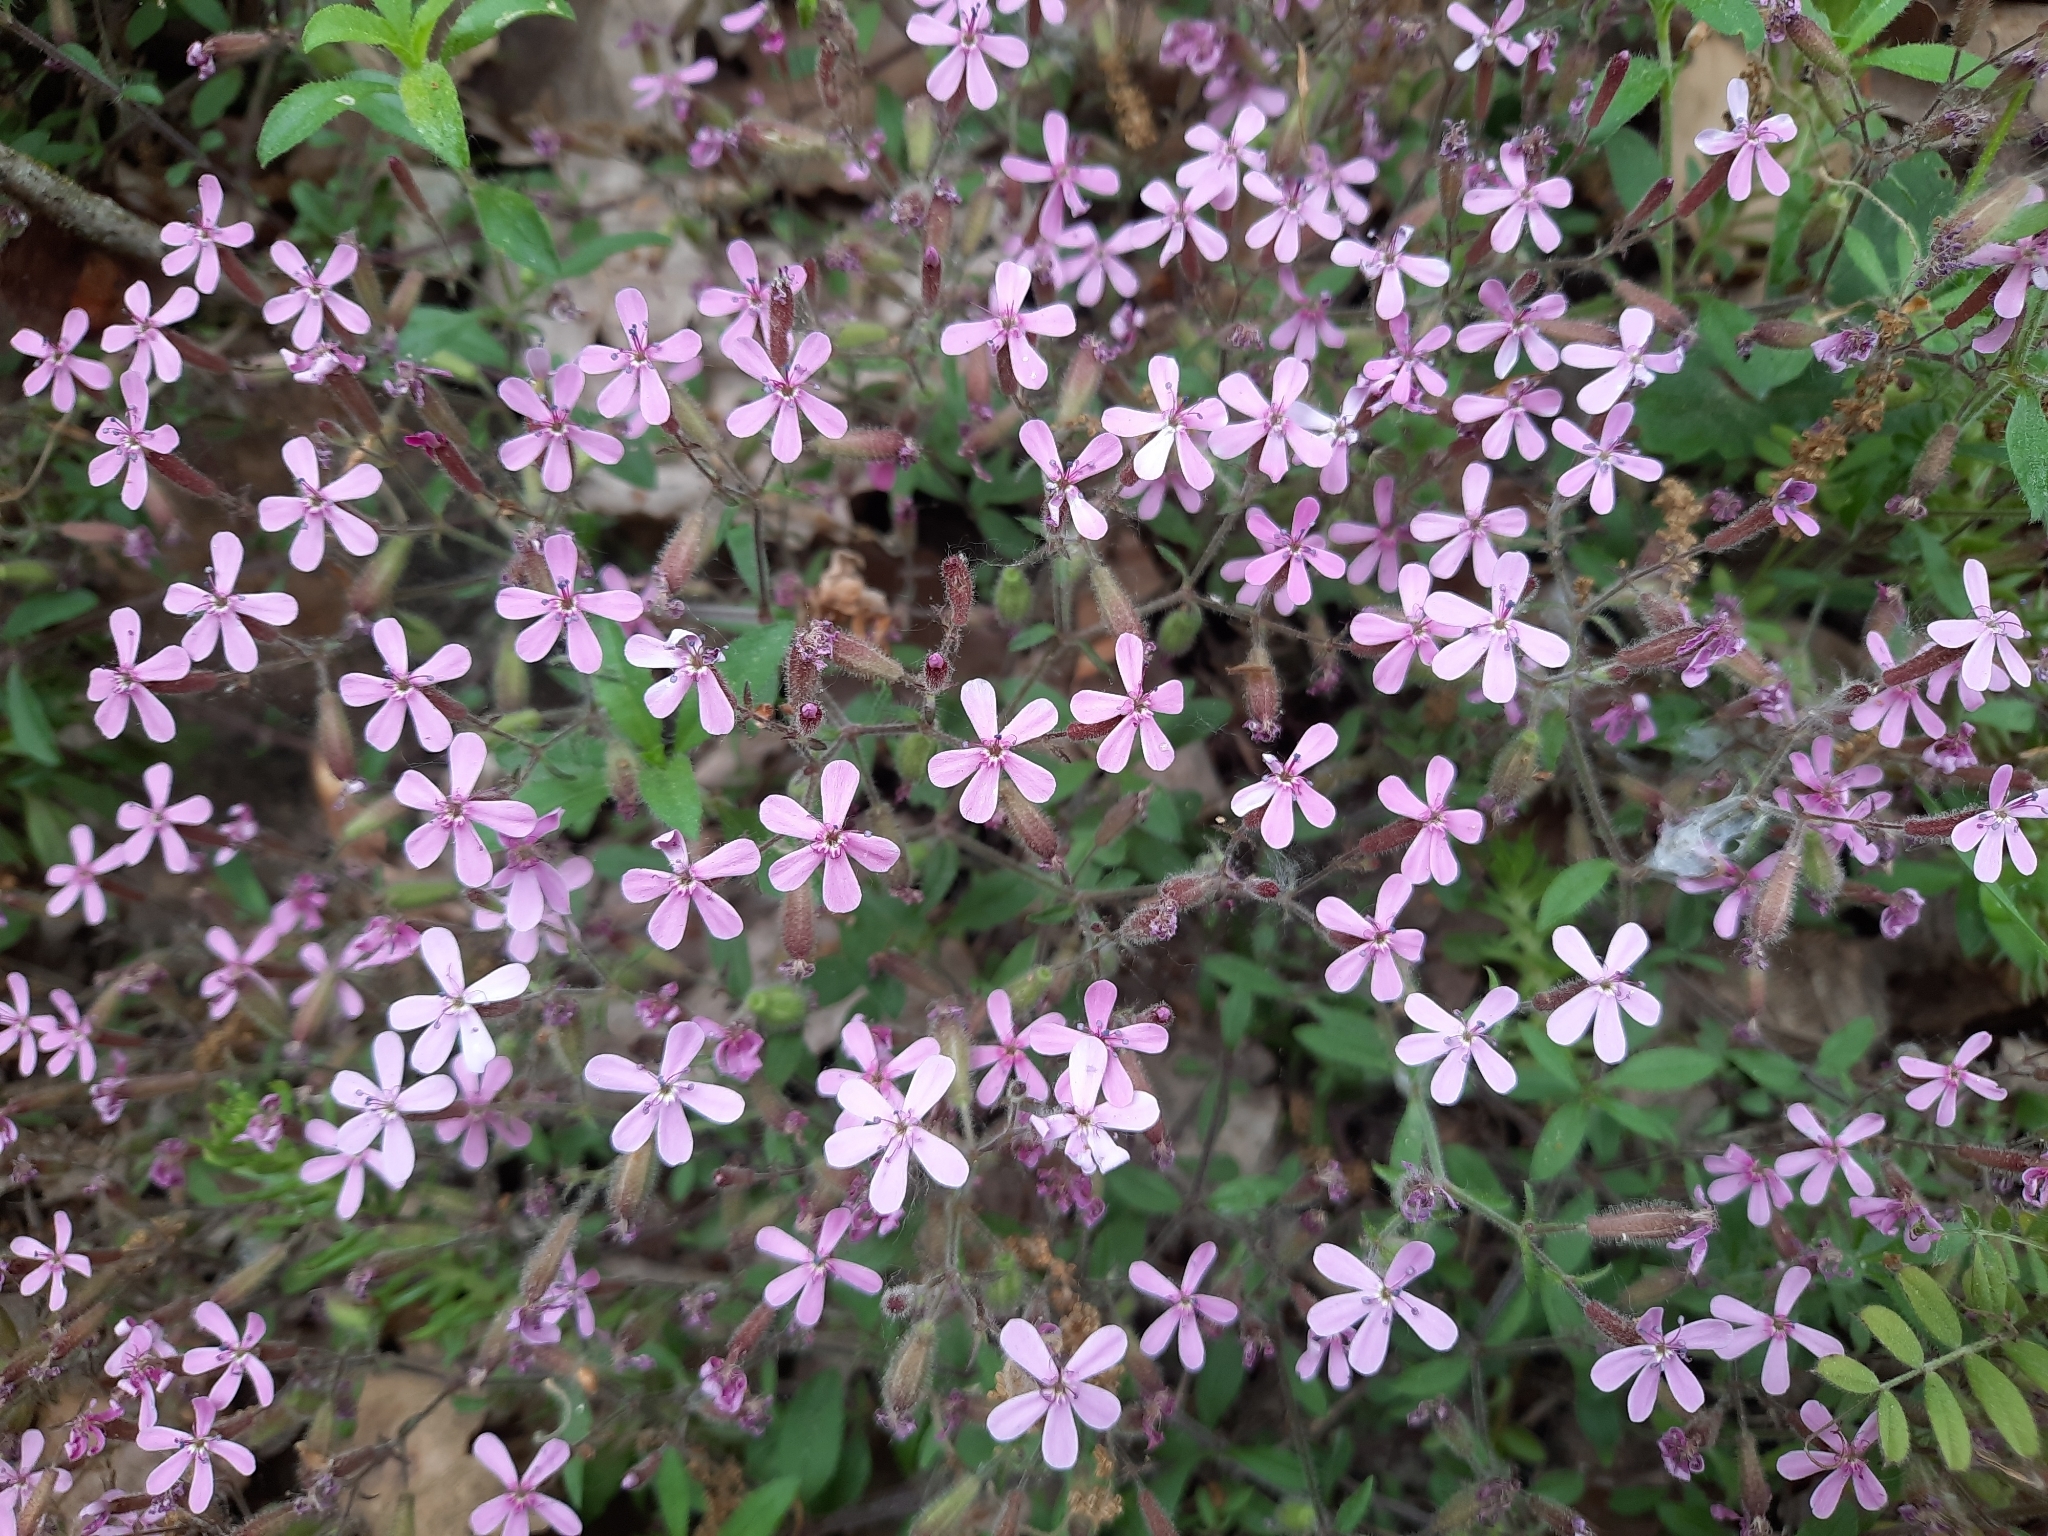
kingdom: Plantae
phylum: Tracheophyta
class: Magnoliopsida
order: Caryophyllales
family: Caryophyllaceae
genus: Saponaria
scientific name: Saponaria ocymoides
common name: Rock soapwort
